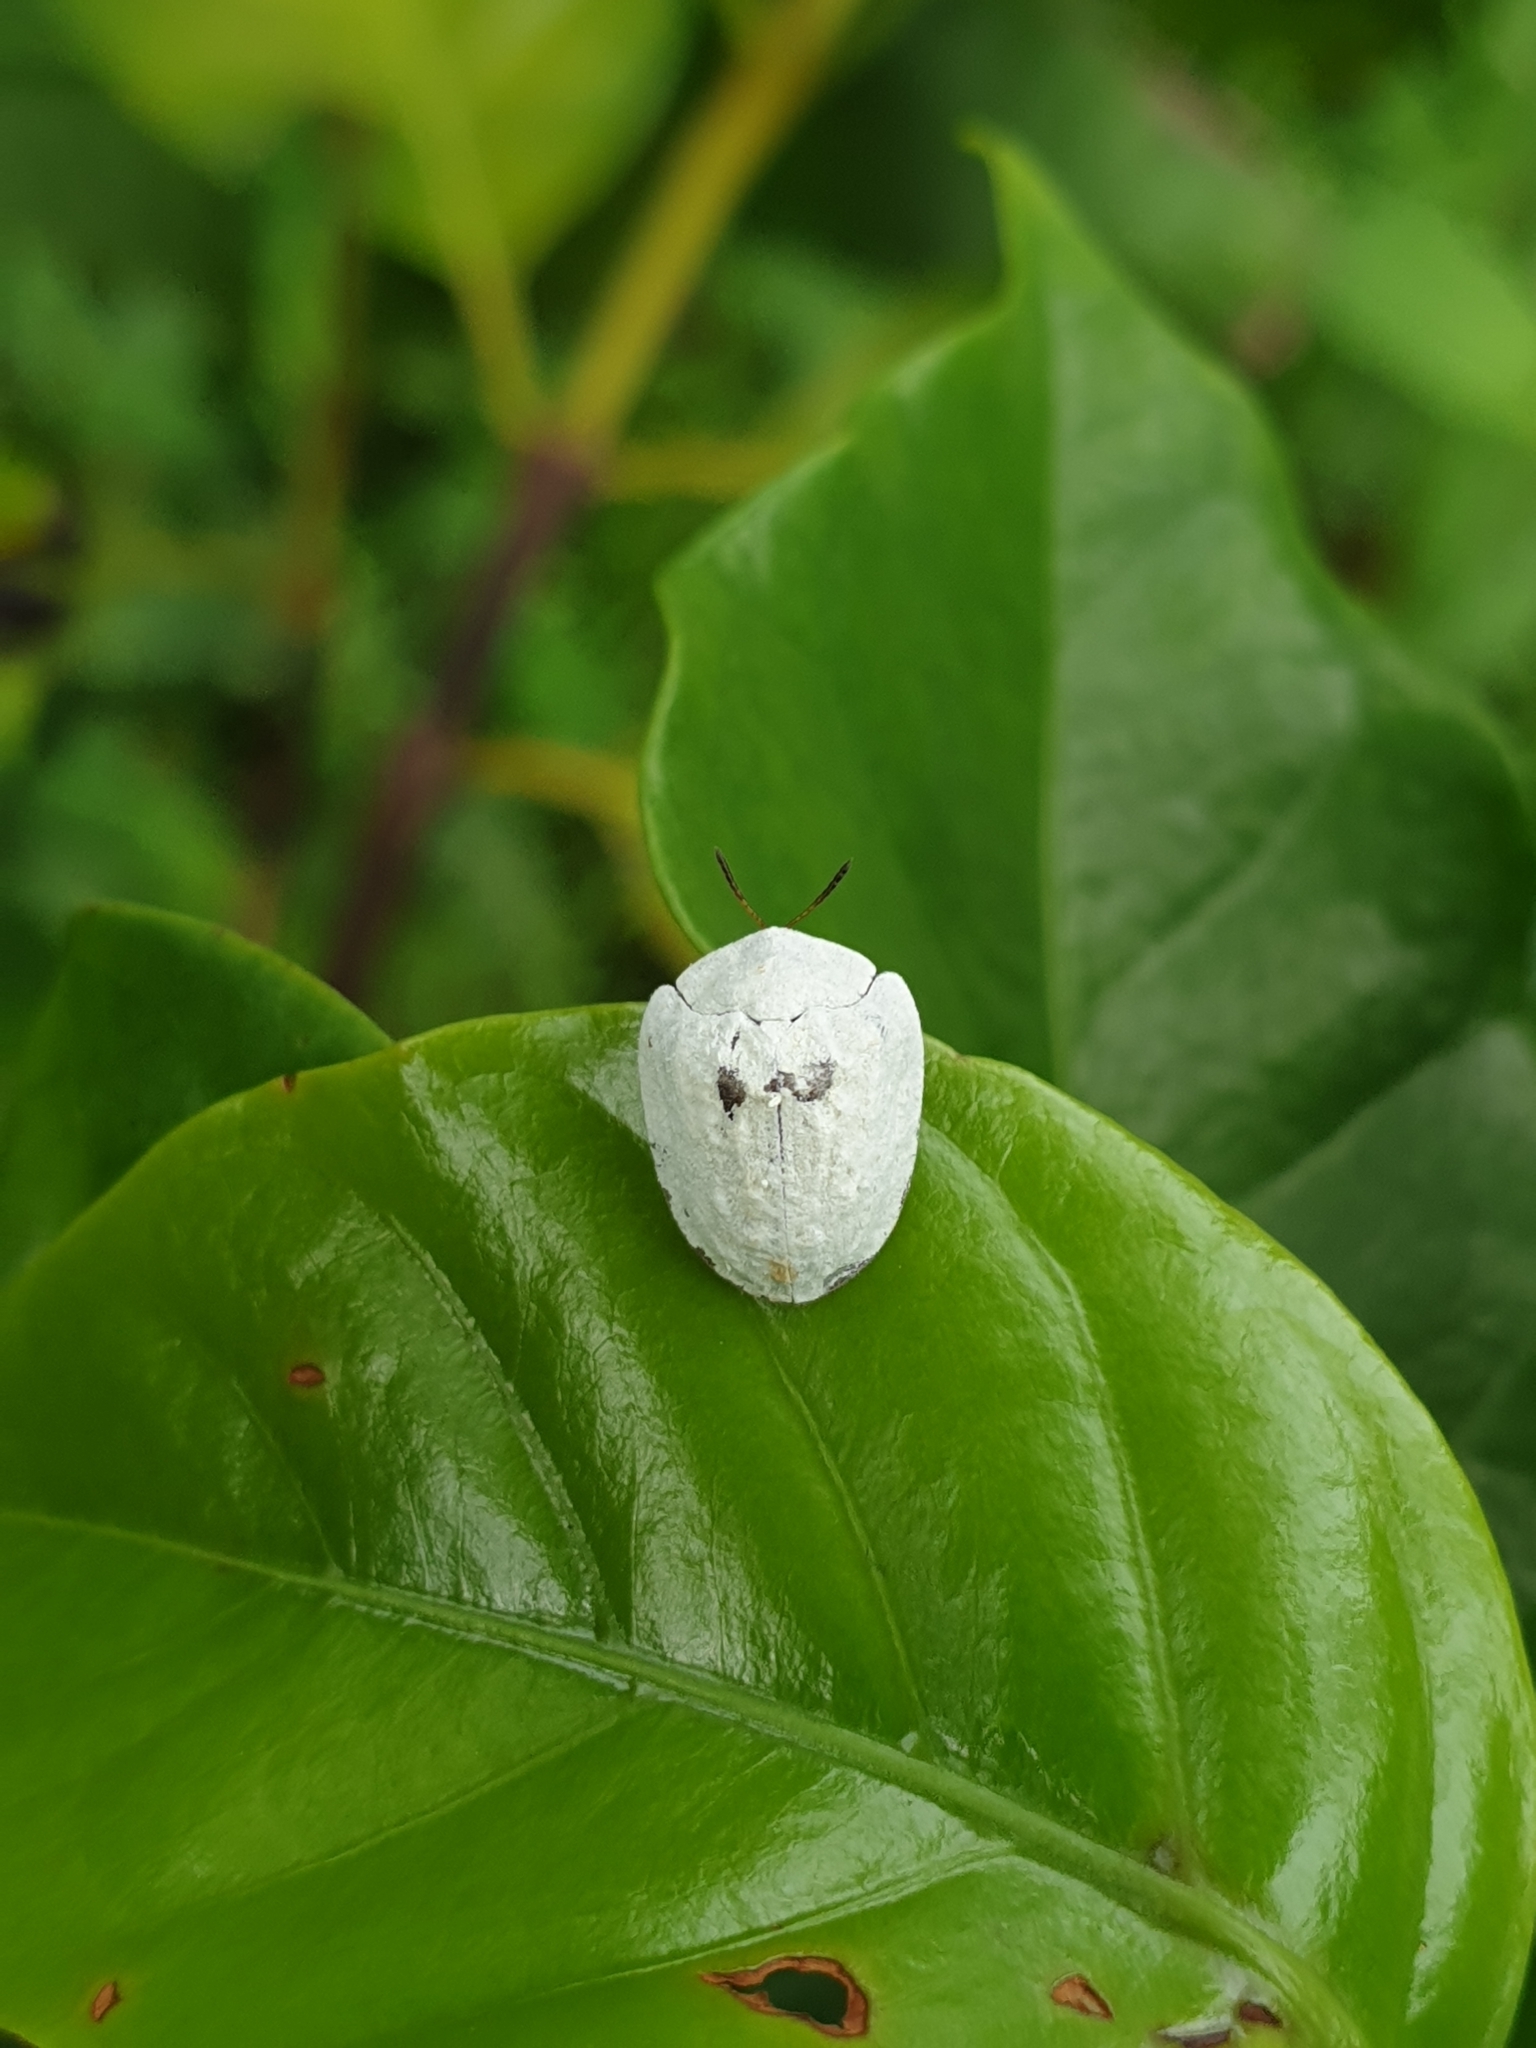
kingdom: Animalia
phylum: Arthropoda
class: Insecta
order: Coleoptera
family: Chrysomelidae
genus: Silana
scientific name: Silana farinosa
